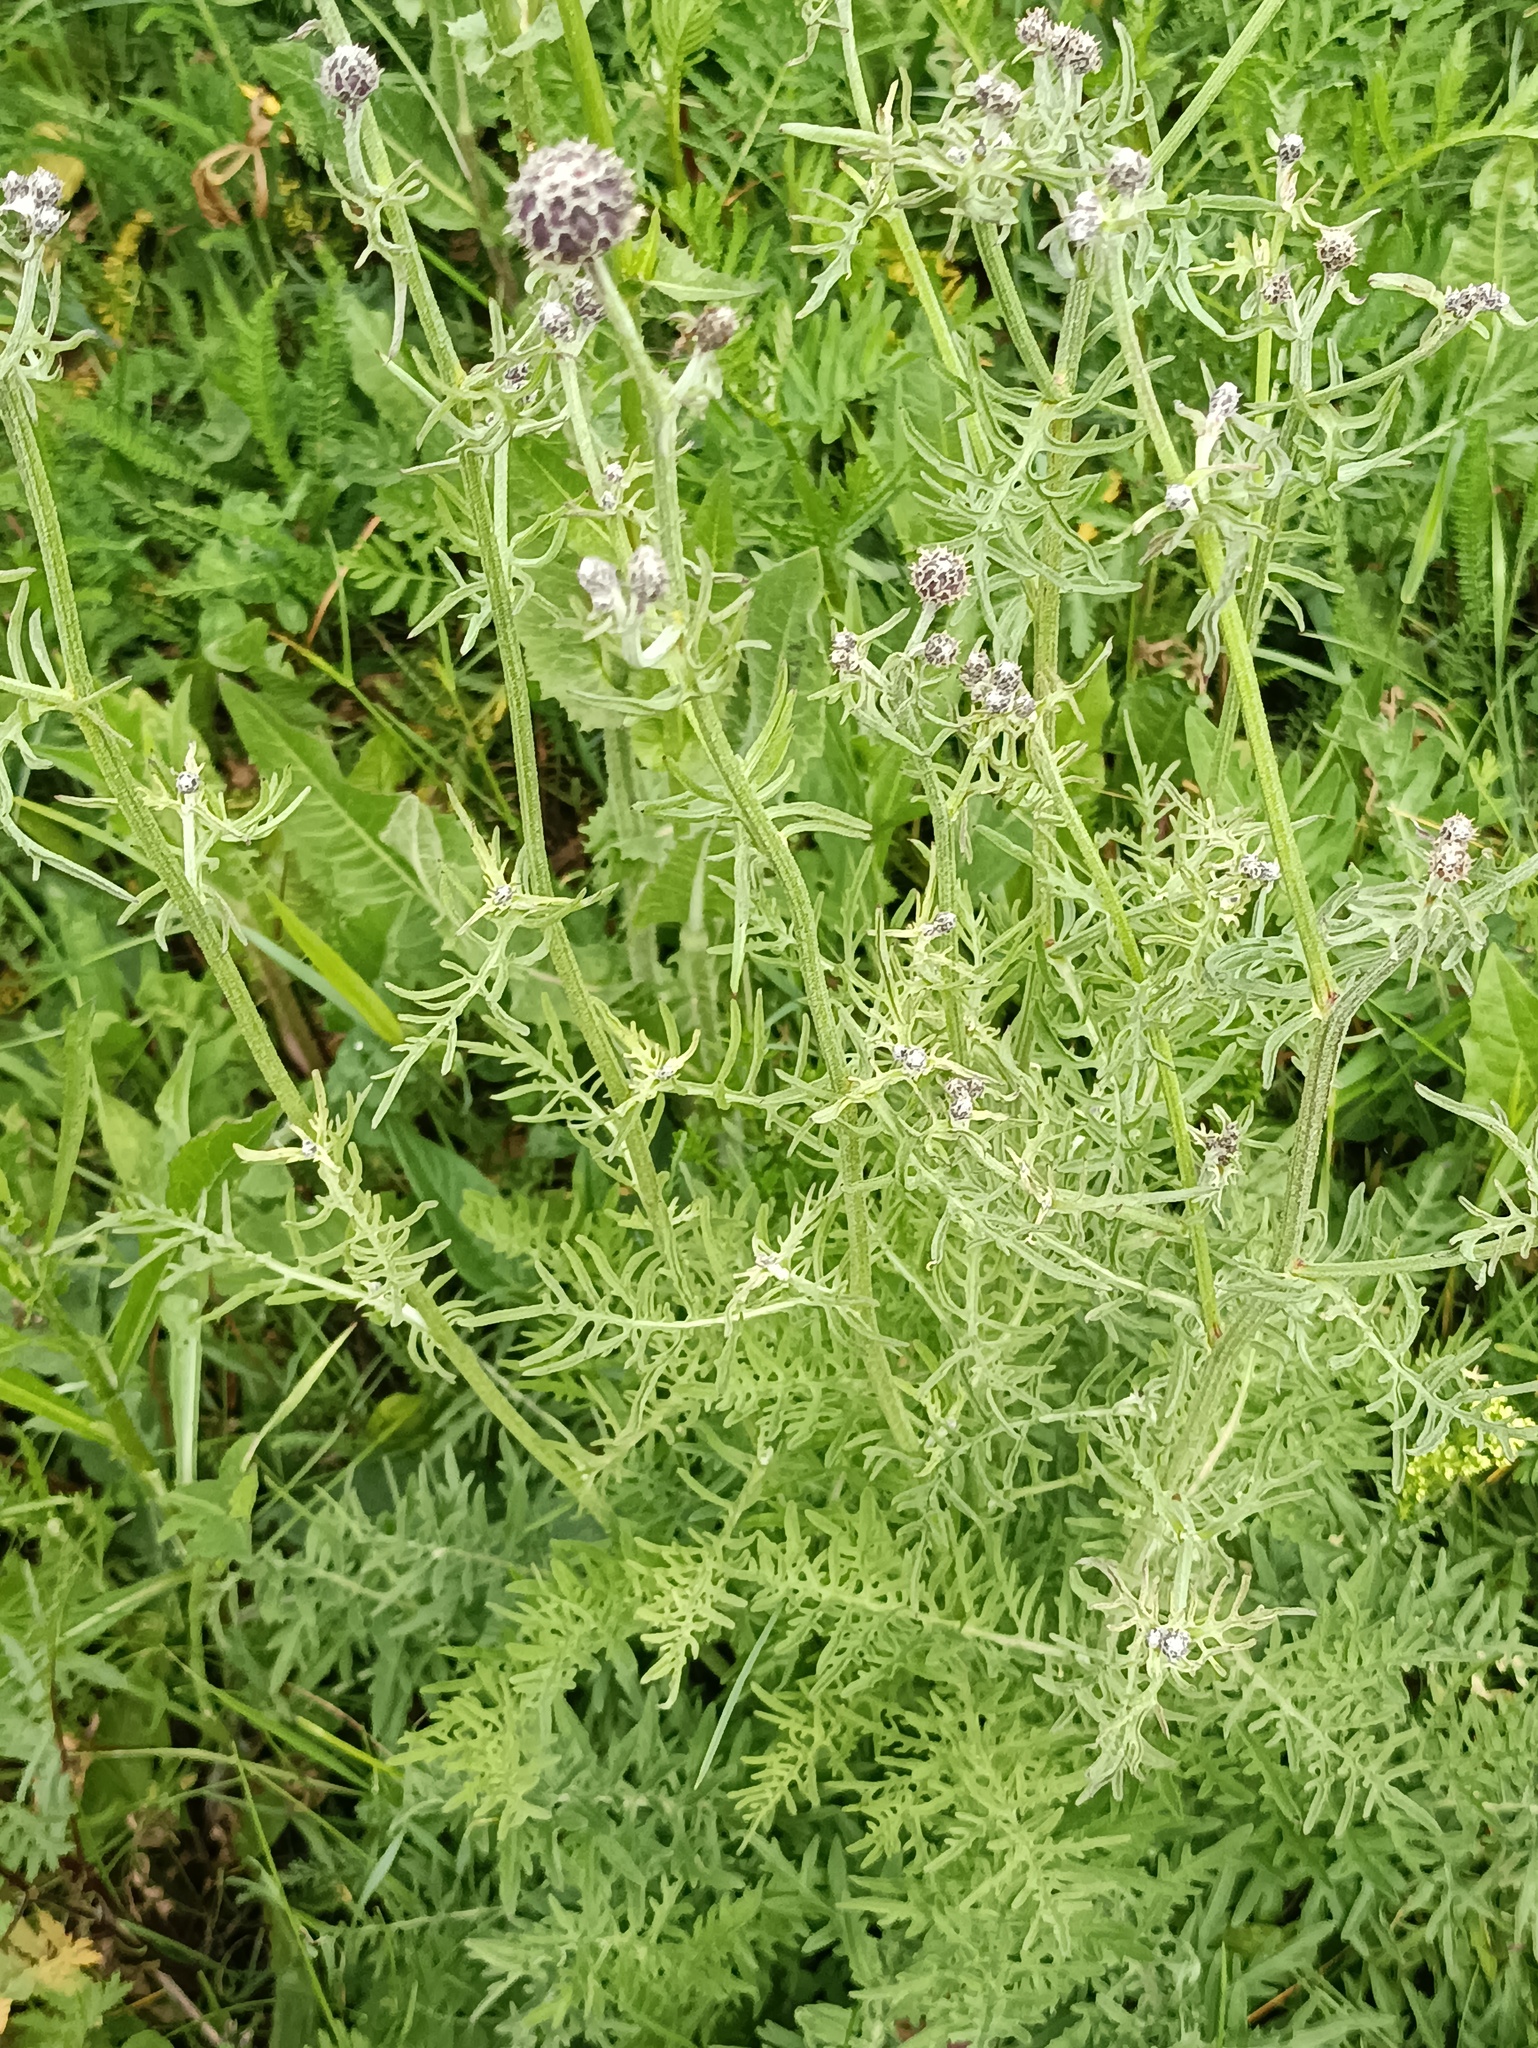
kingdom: Plantae
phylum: Tracheophyta
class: Magnoliopsida
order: Asterales
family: Asteraceae
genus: Centaurea
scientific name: Centaurea scabiosa
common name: Greater knapweed
